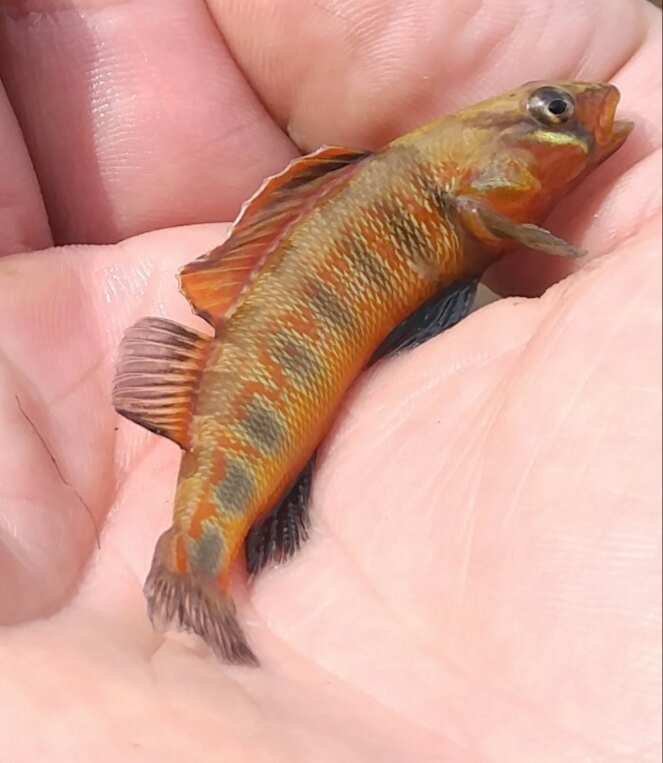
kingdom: Animalia
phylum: Chordata
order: Perciformes
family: Percidae
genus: Percina
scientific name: Percina evides
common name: Gilt darter
